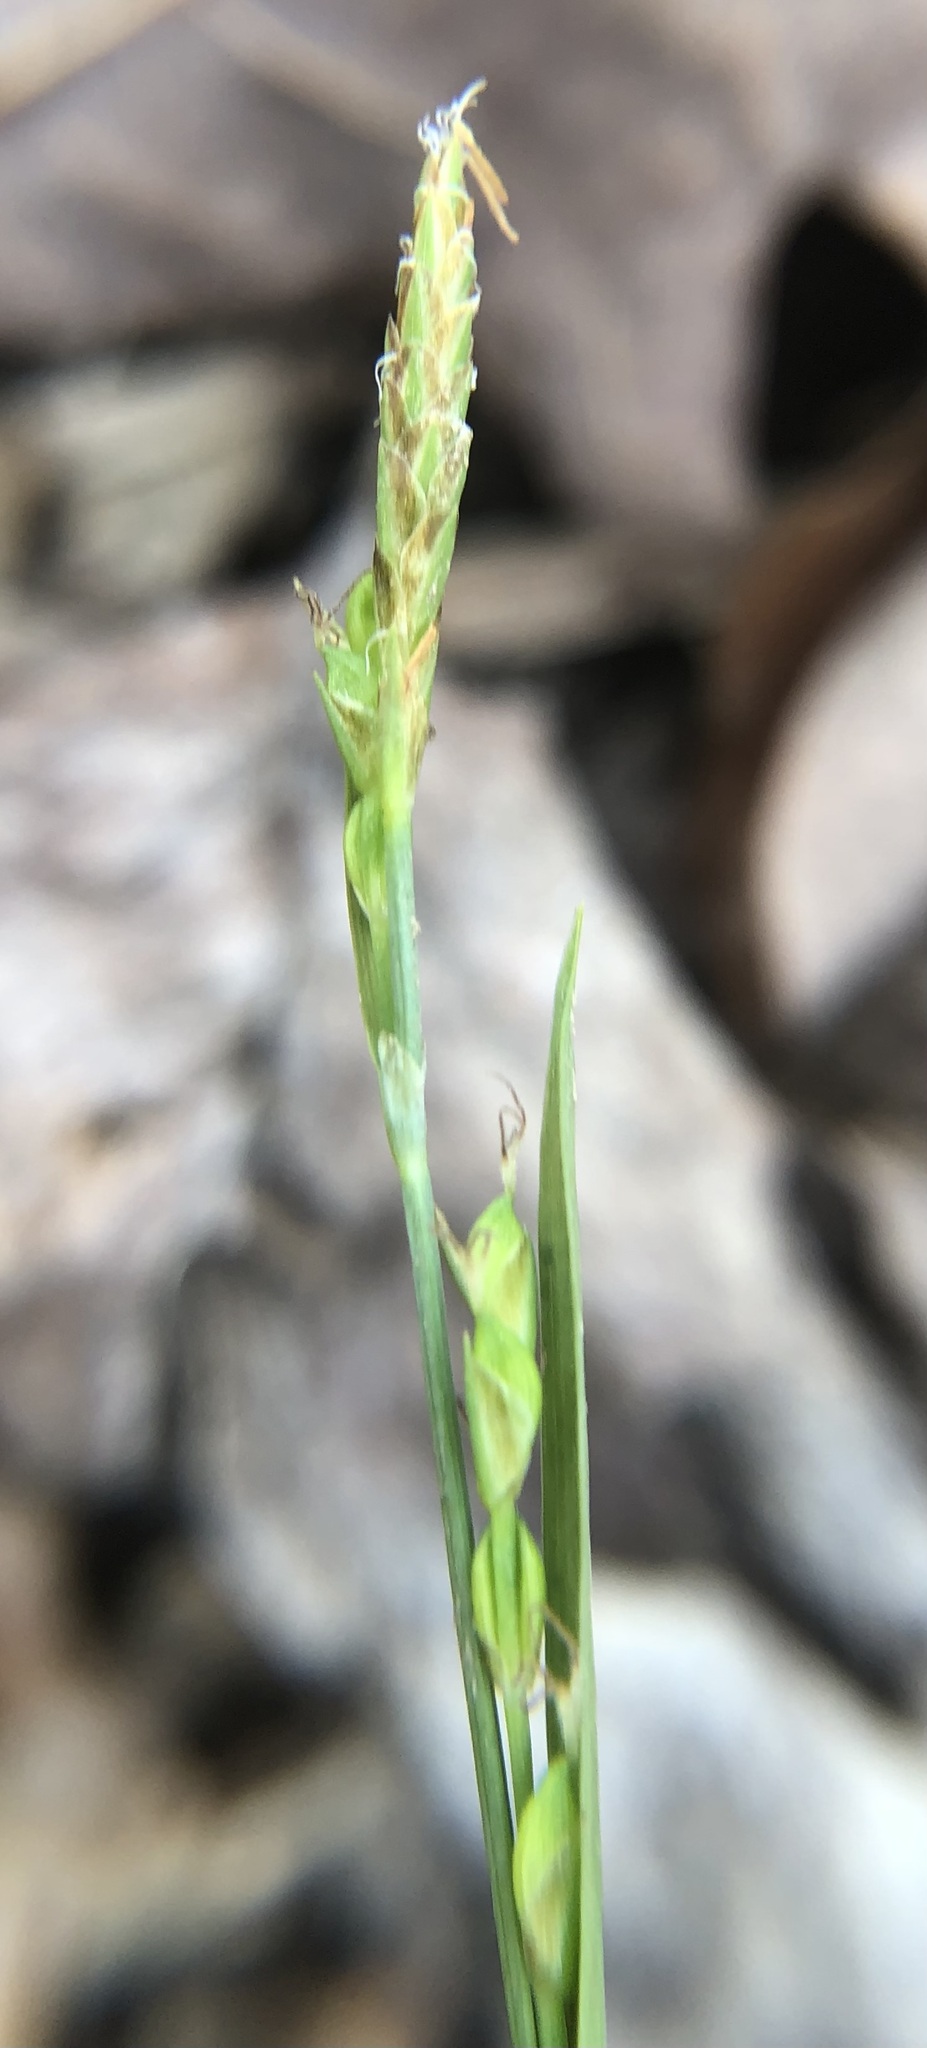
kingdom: Plantae
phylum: Tracheophyta
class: Liliopsida
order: Poales
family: Cyperaceae
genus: Carex
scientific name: Carex platyphylla
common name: Broad-leaved sedge
